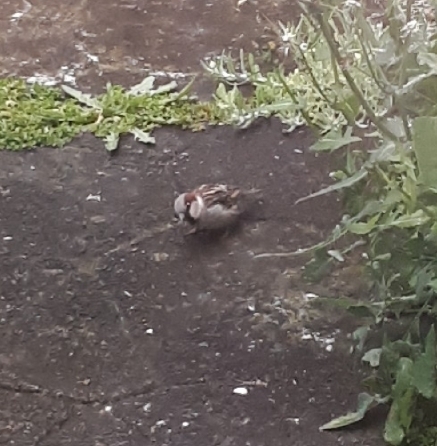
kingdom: Animalia
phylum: Chordata
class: Aves
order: Passeriformes
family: Passeridae
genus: Passer
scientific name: Passer domesticus
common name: House sparrow
